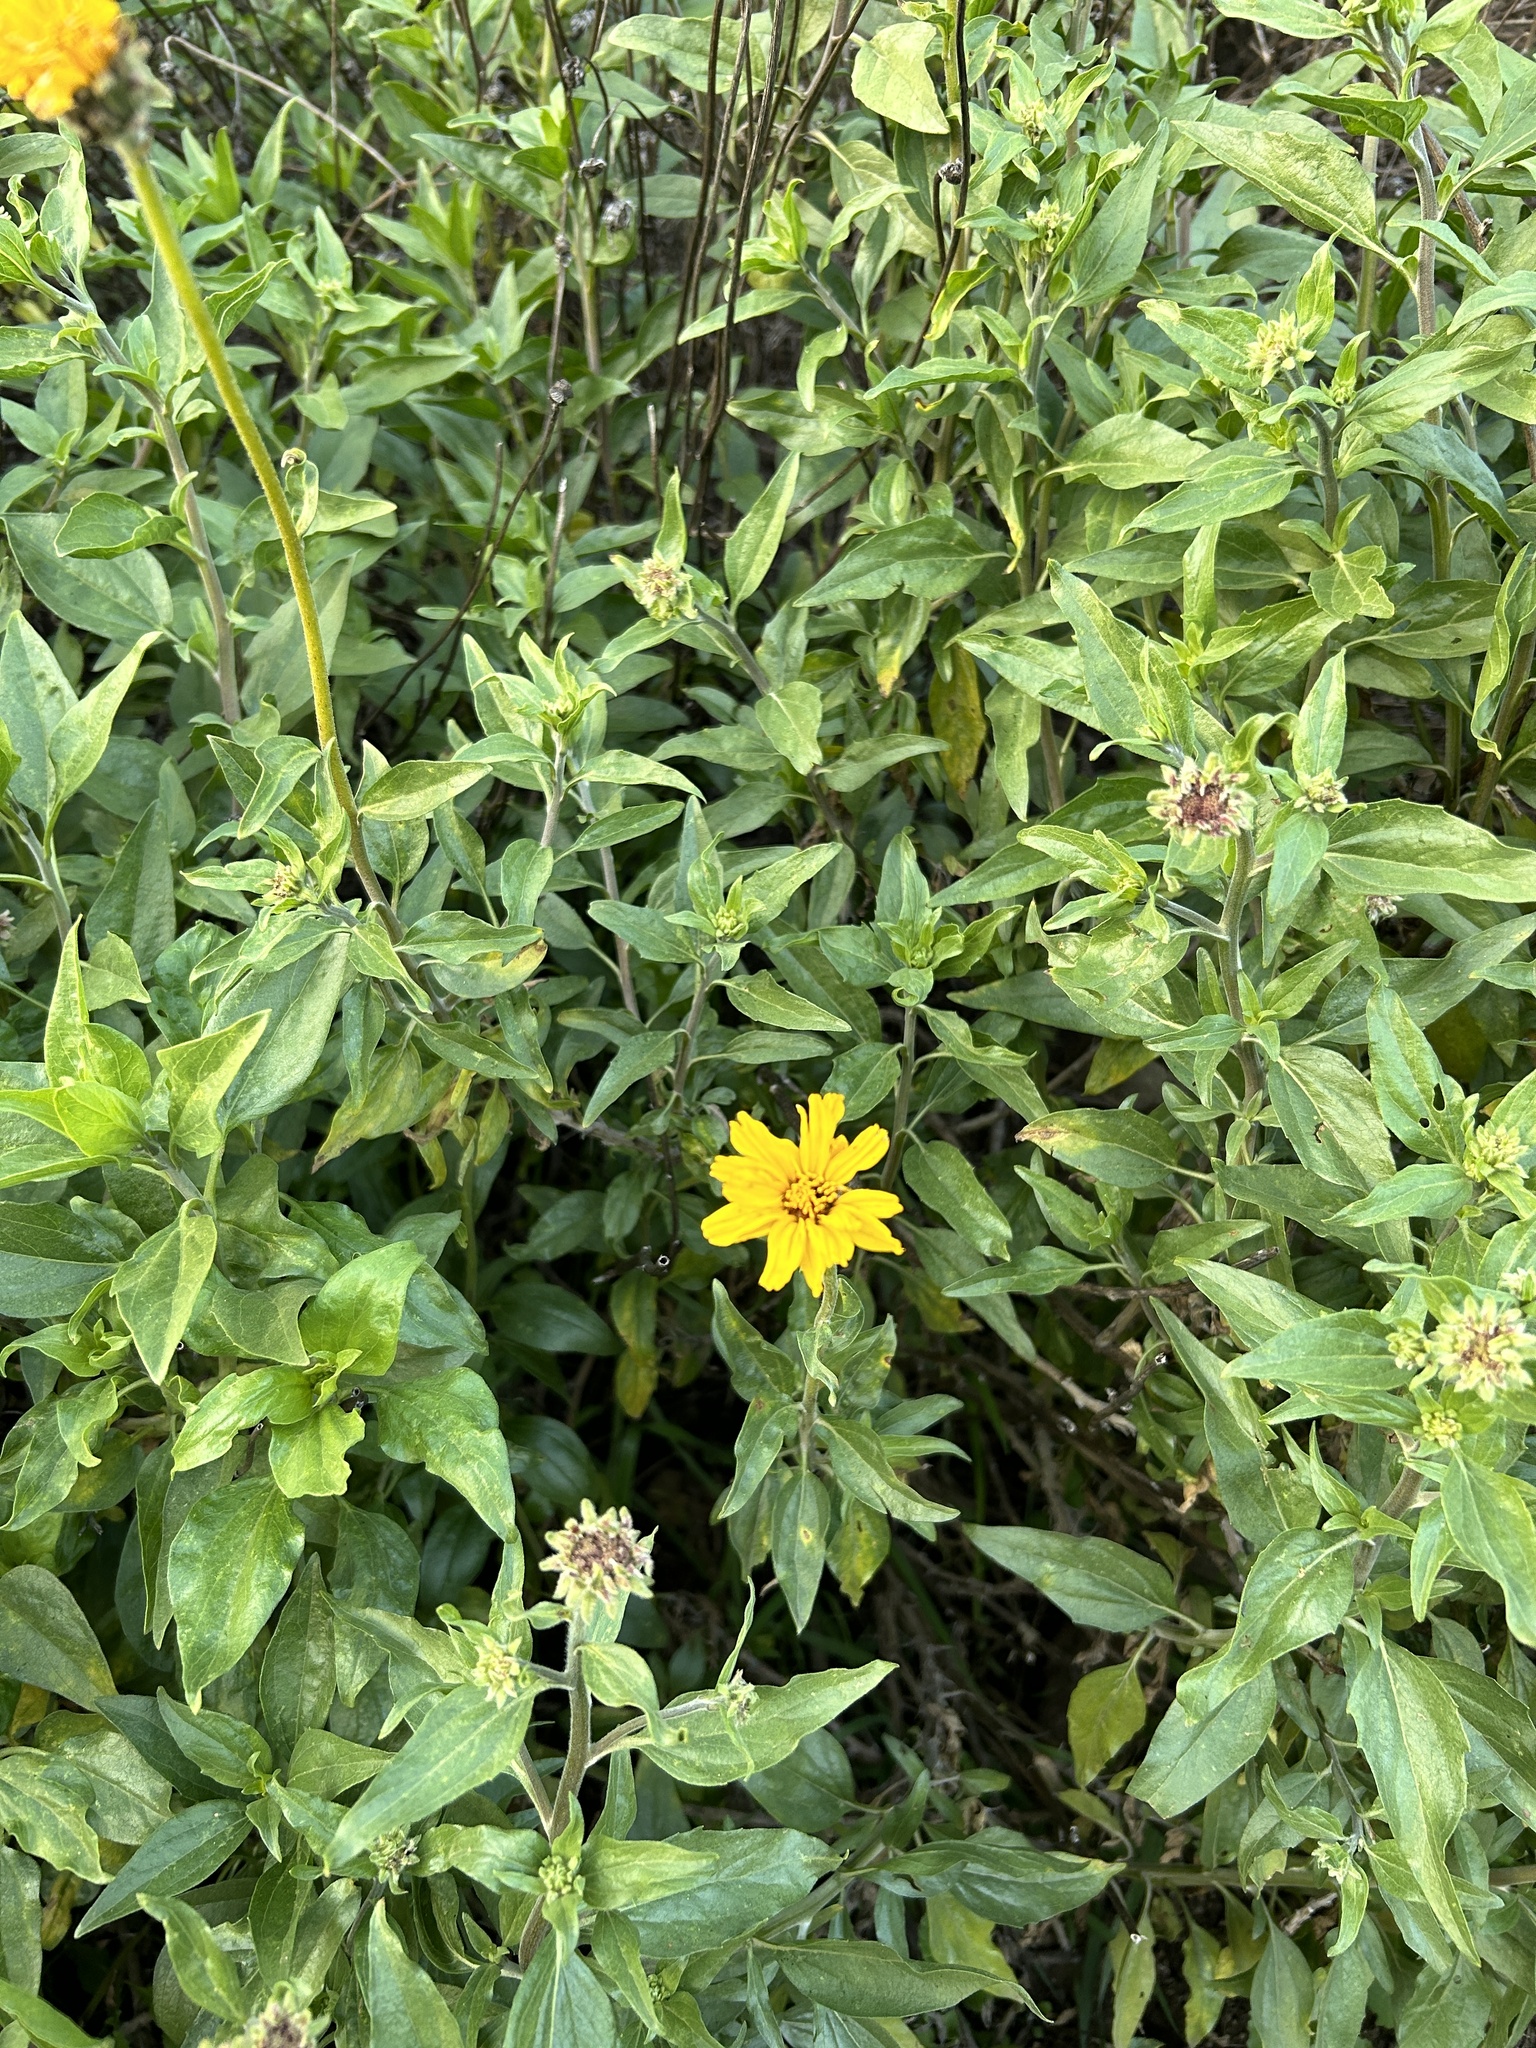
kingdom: Plantae
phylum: Tracheophyta
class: Magnoliopsida
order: Asterales
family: Asteraceae
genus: Encelia
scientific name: Encelia californica
